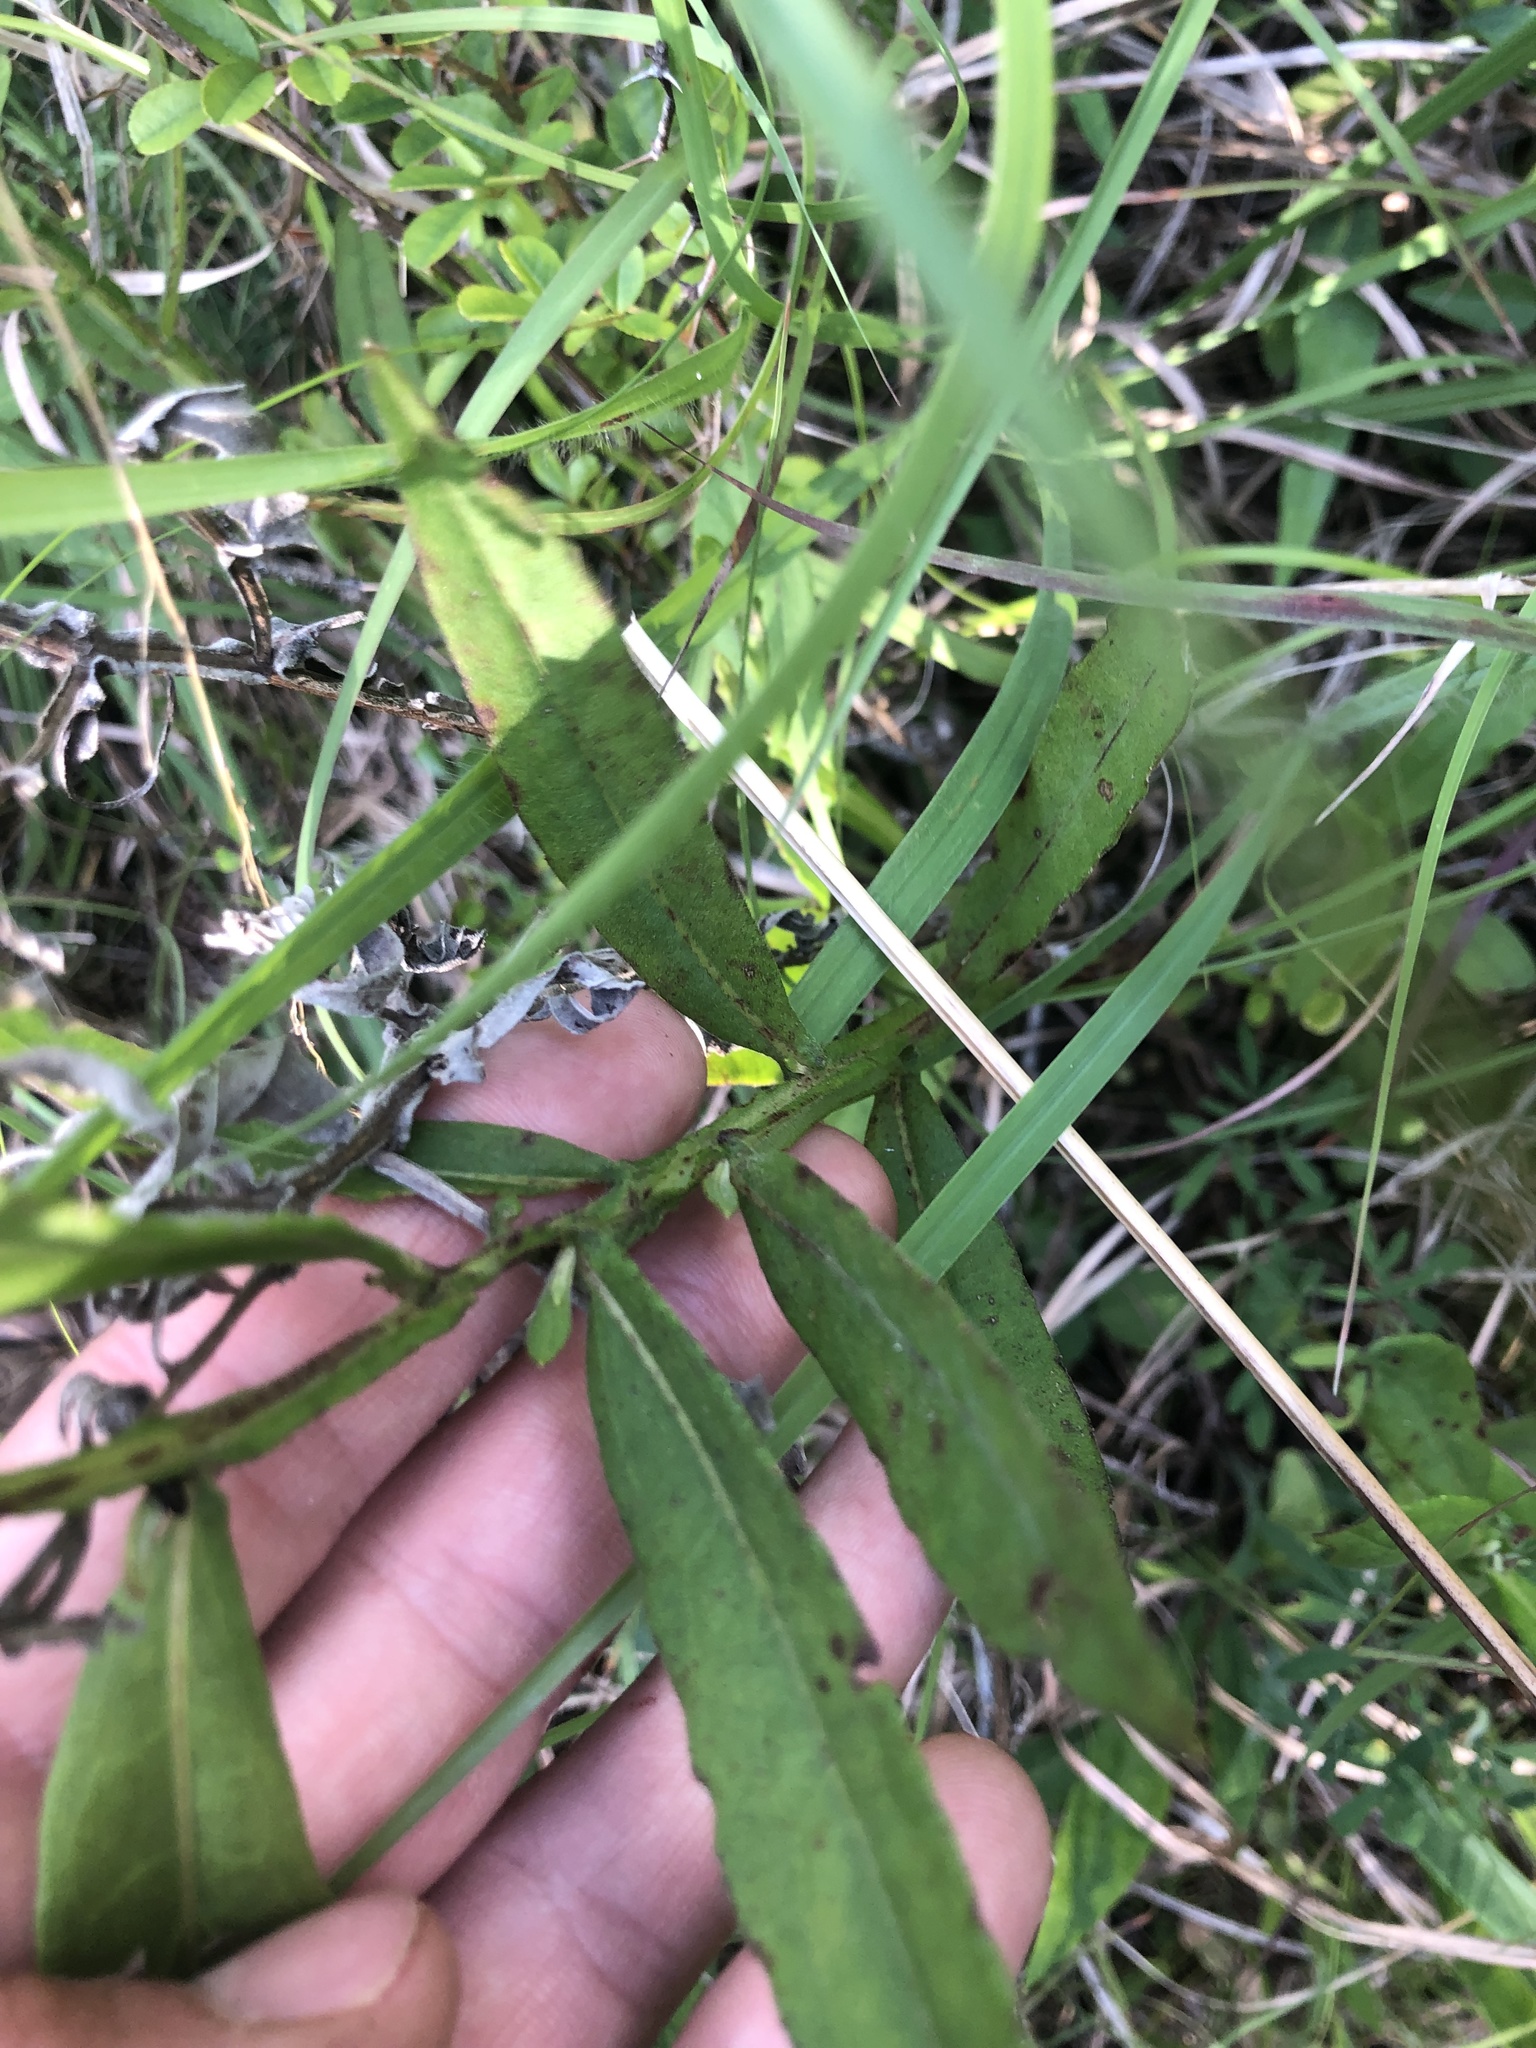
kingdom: Plantae
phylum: Tracheophyta
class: Magnoliopsida
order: Asterales
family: Asteraceae
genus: Helenium
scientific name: Helenium autumnale
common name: Sneezeweed
